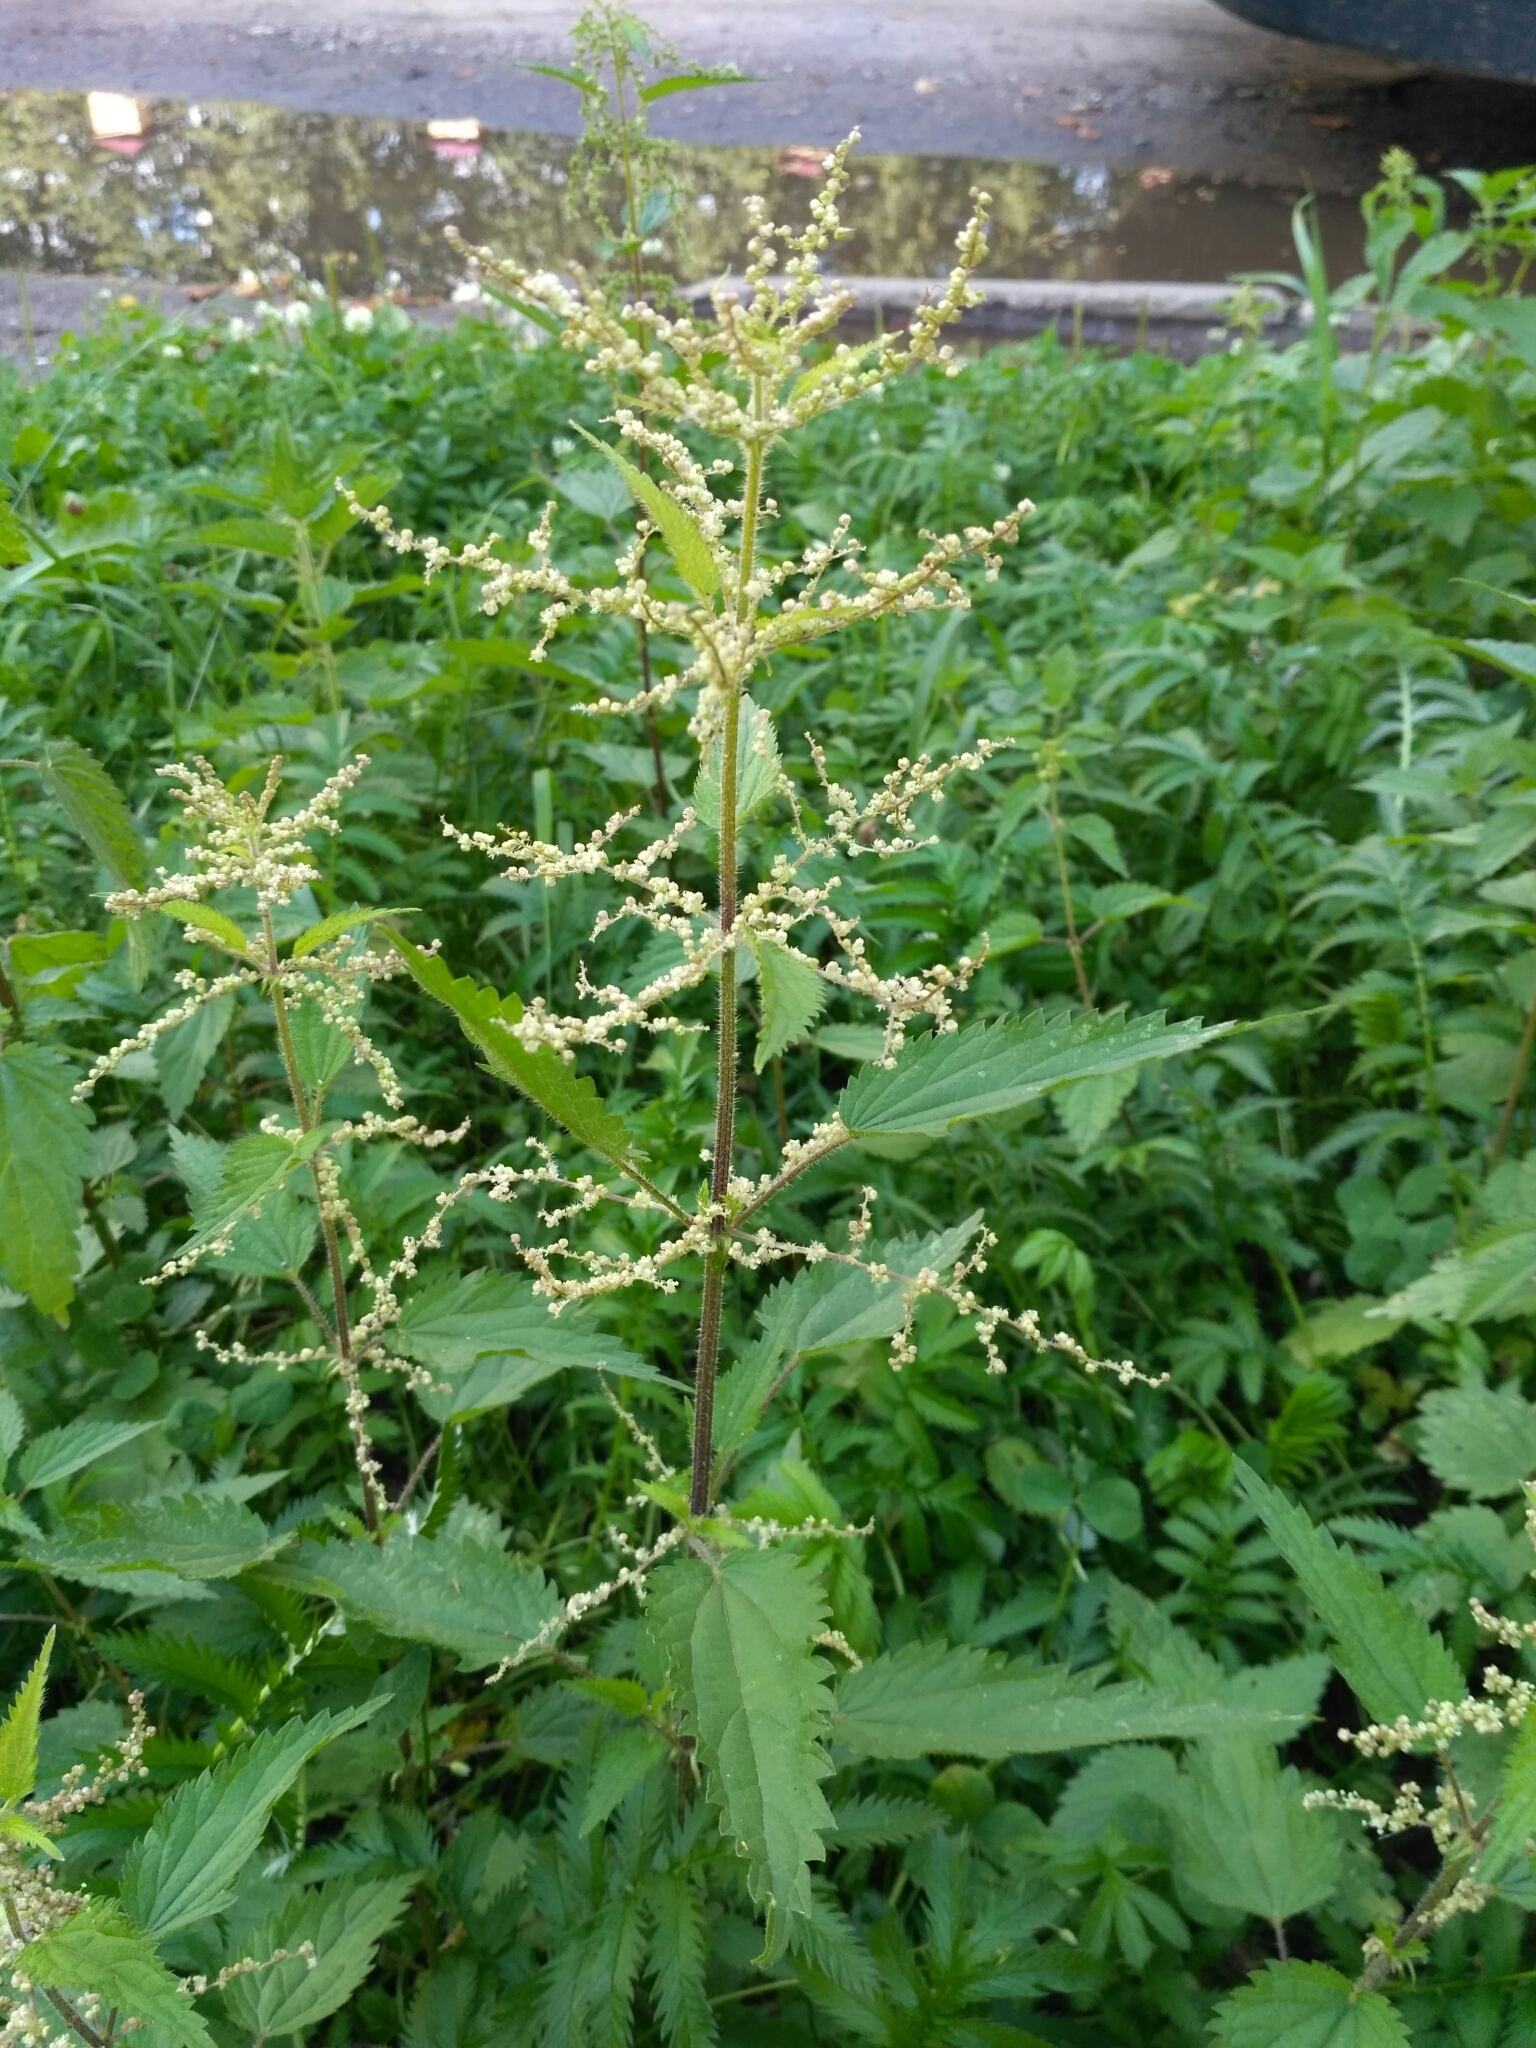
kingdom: Plantae
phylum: Tracheophyta
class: Magnoliopsida
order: Rosales
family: Urticaceae
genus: Urtica
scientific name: Urtica dioica
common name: Common nettle
